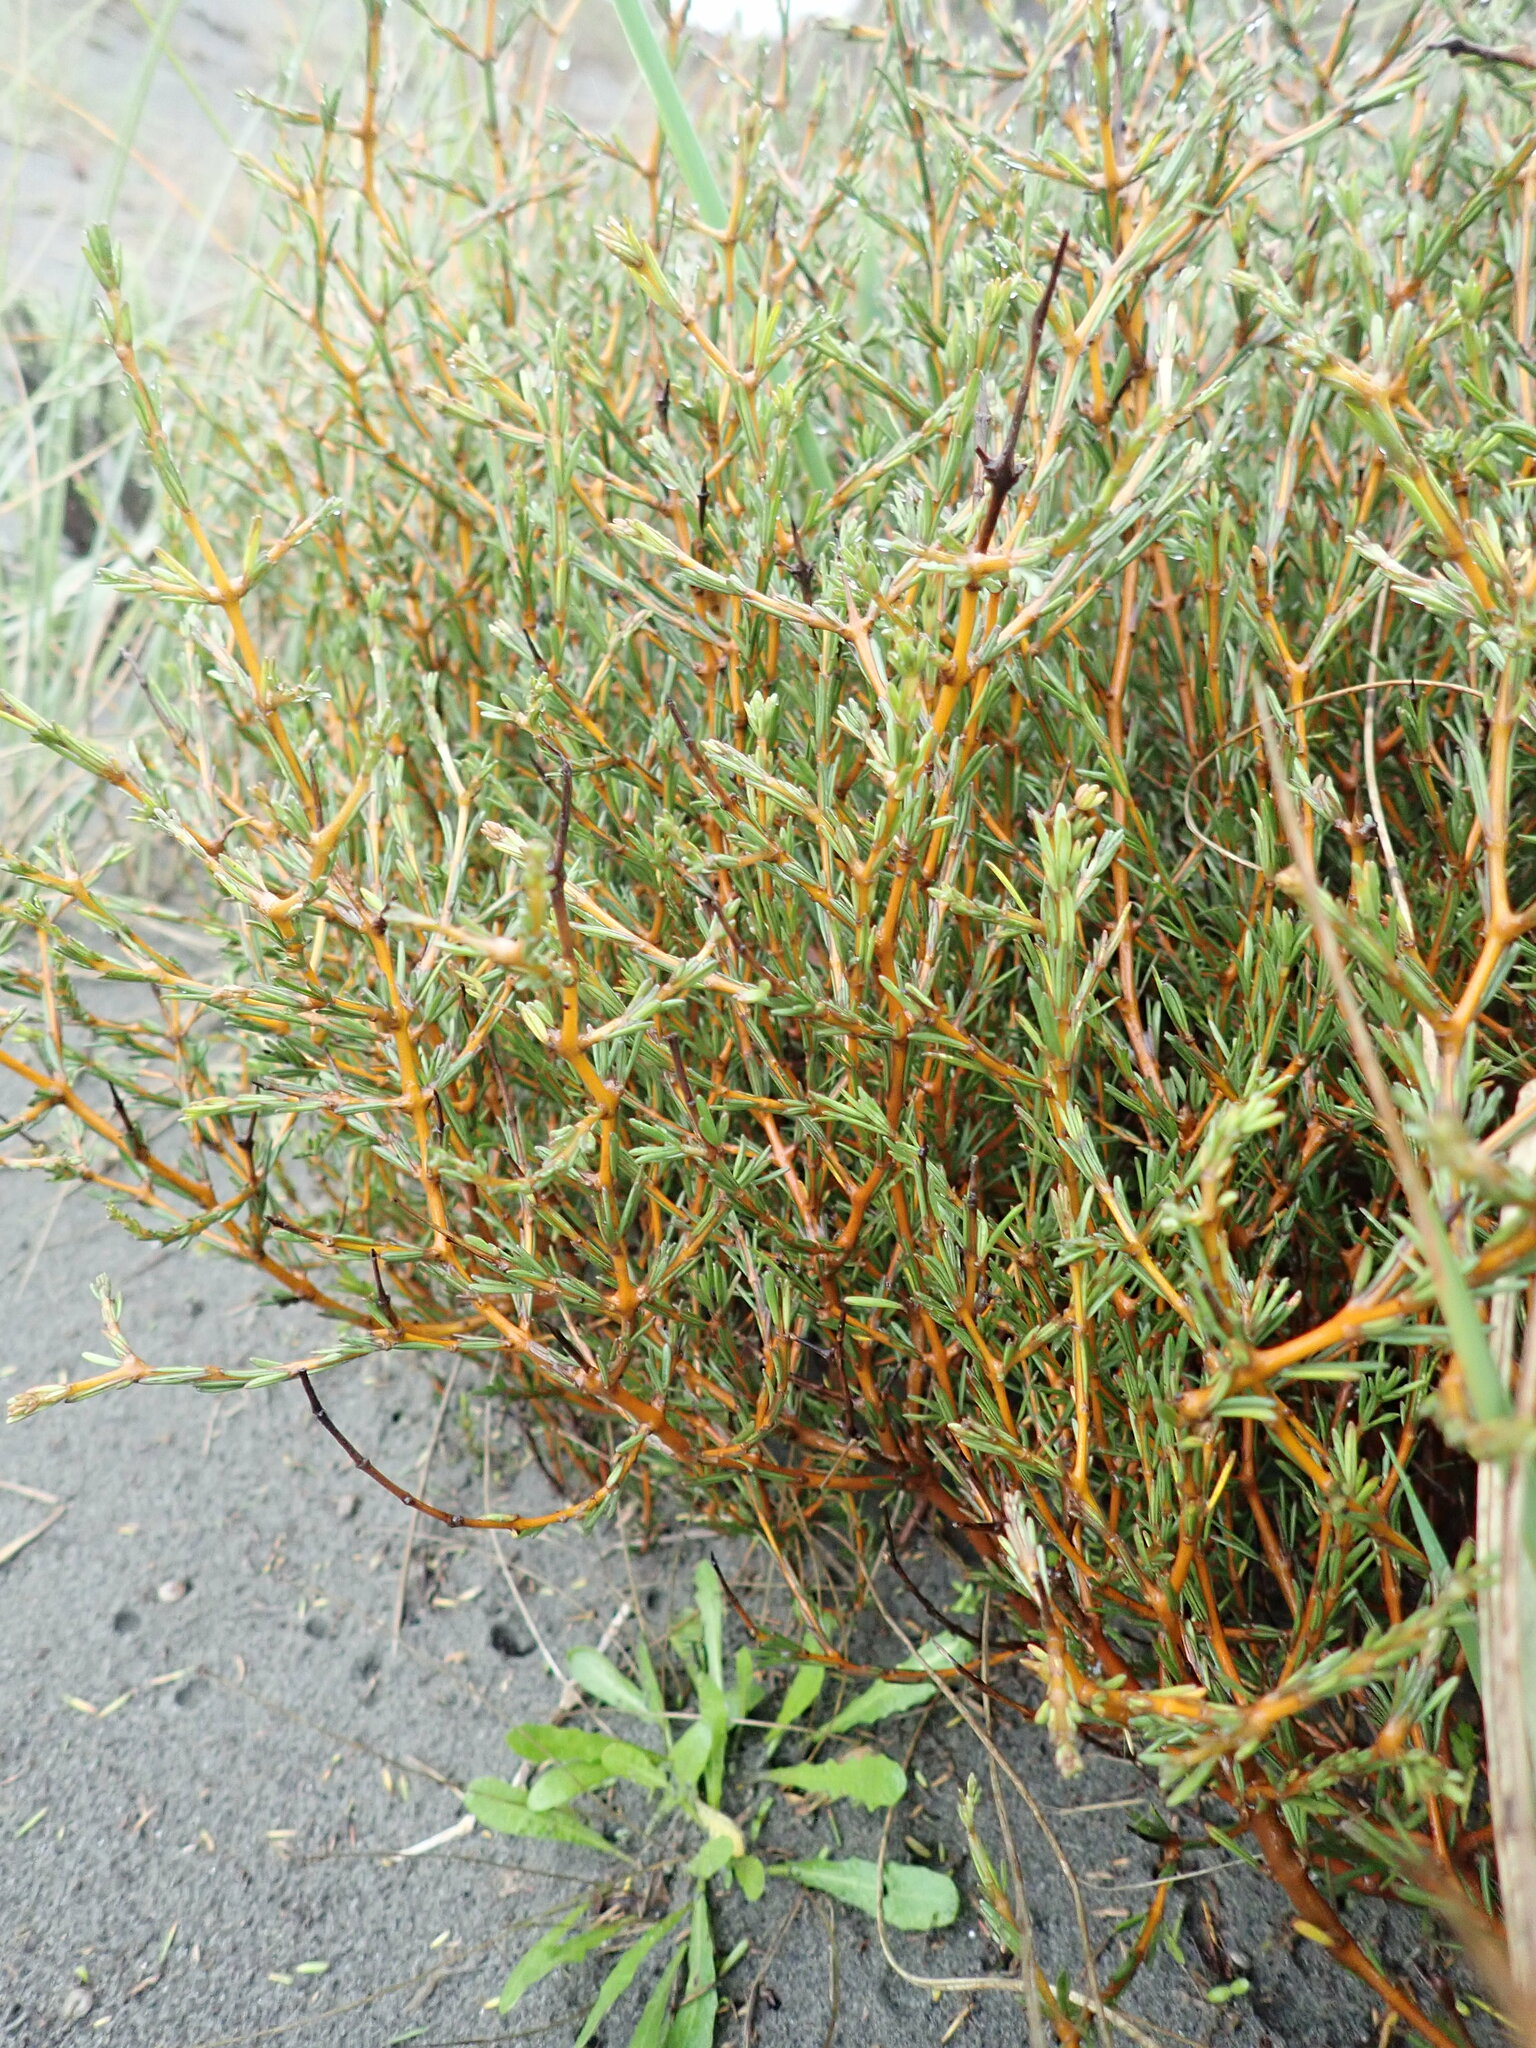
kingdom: Plantae
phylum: Tracheophyta
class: Magnoliopsida
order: Gentianales
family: Rubiaceae
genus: Coprosma
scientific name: Coprosma acerosa
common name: Sand coprosma
